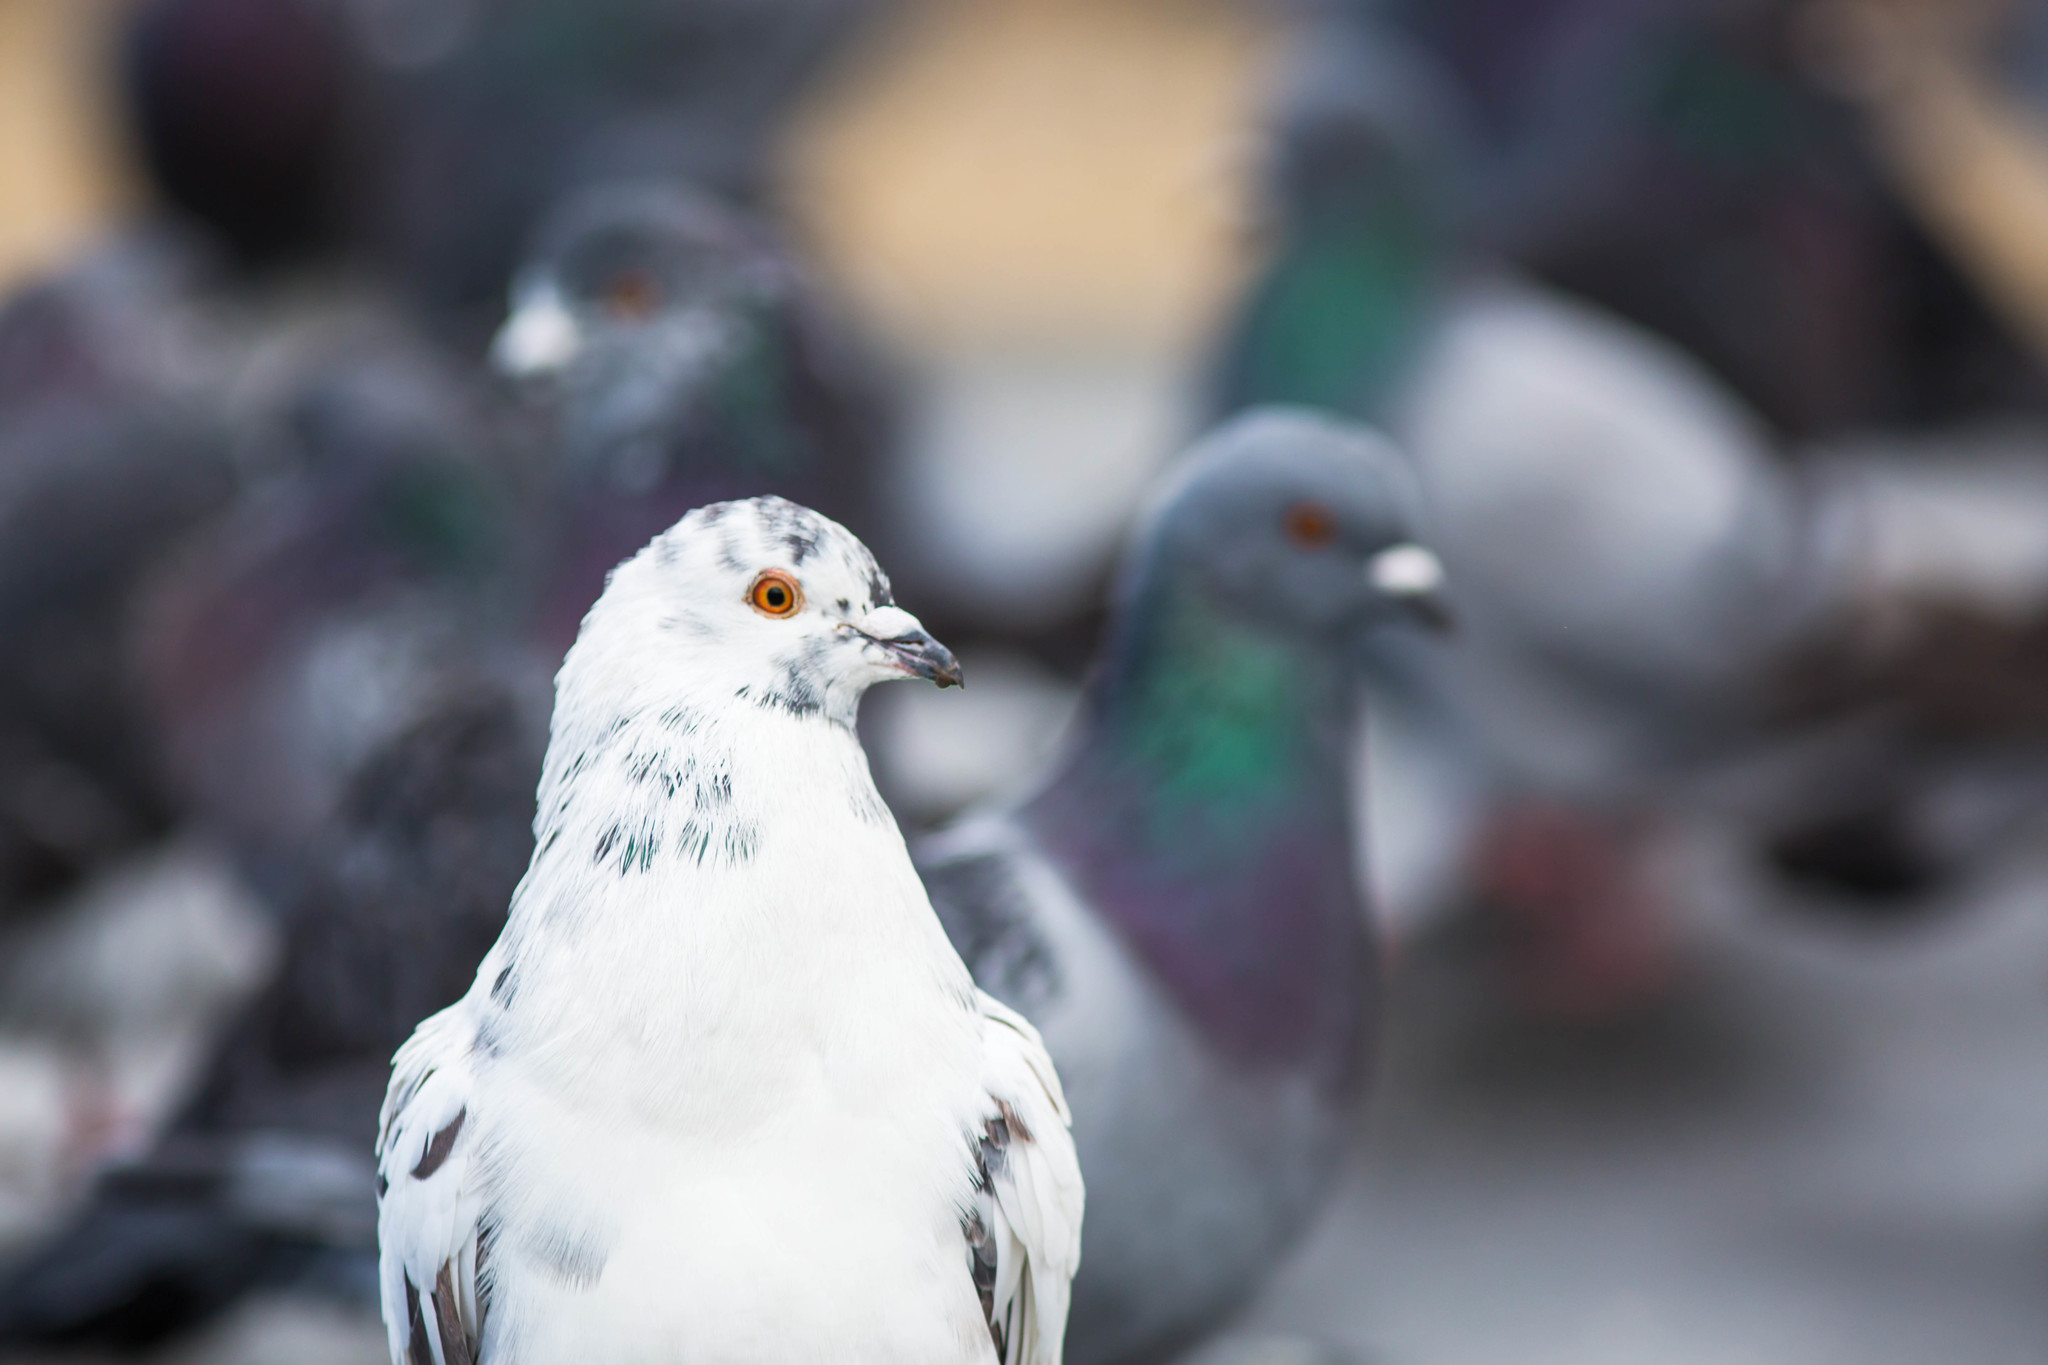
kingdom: Animalia
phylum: Chordata
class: Aves
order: Columbiformes
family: Columbidae
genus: Columba
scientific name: Columba livia
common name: Rock pigeon
